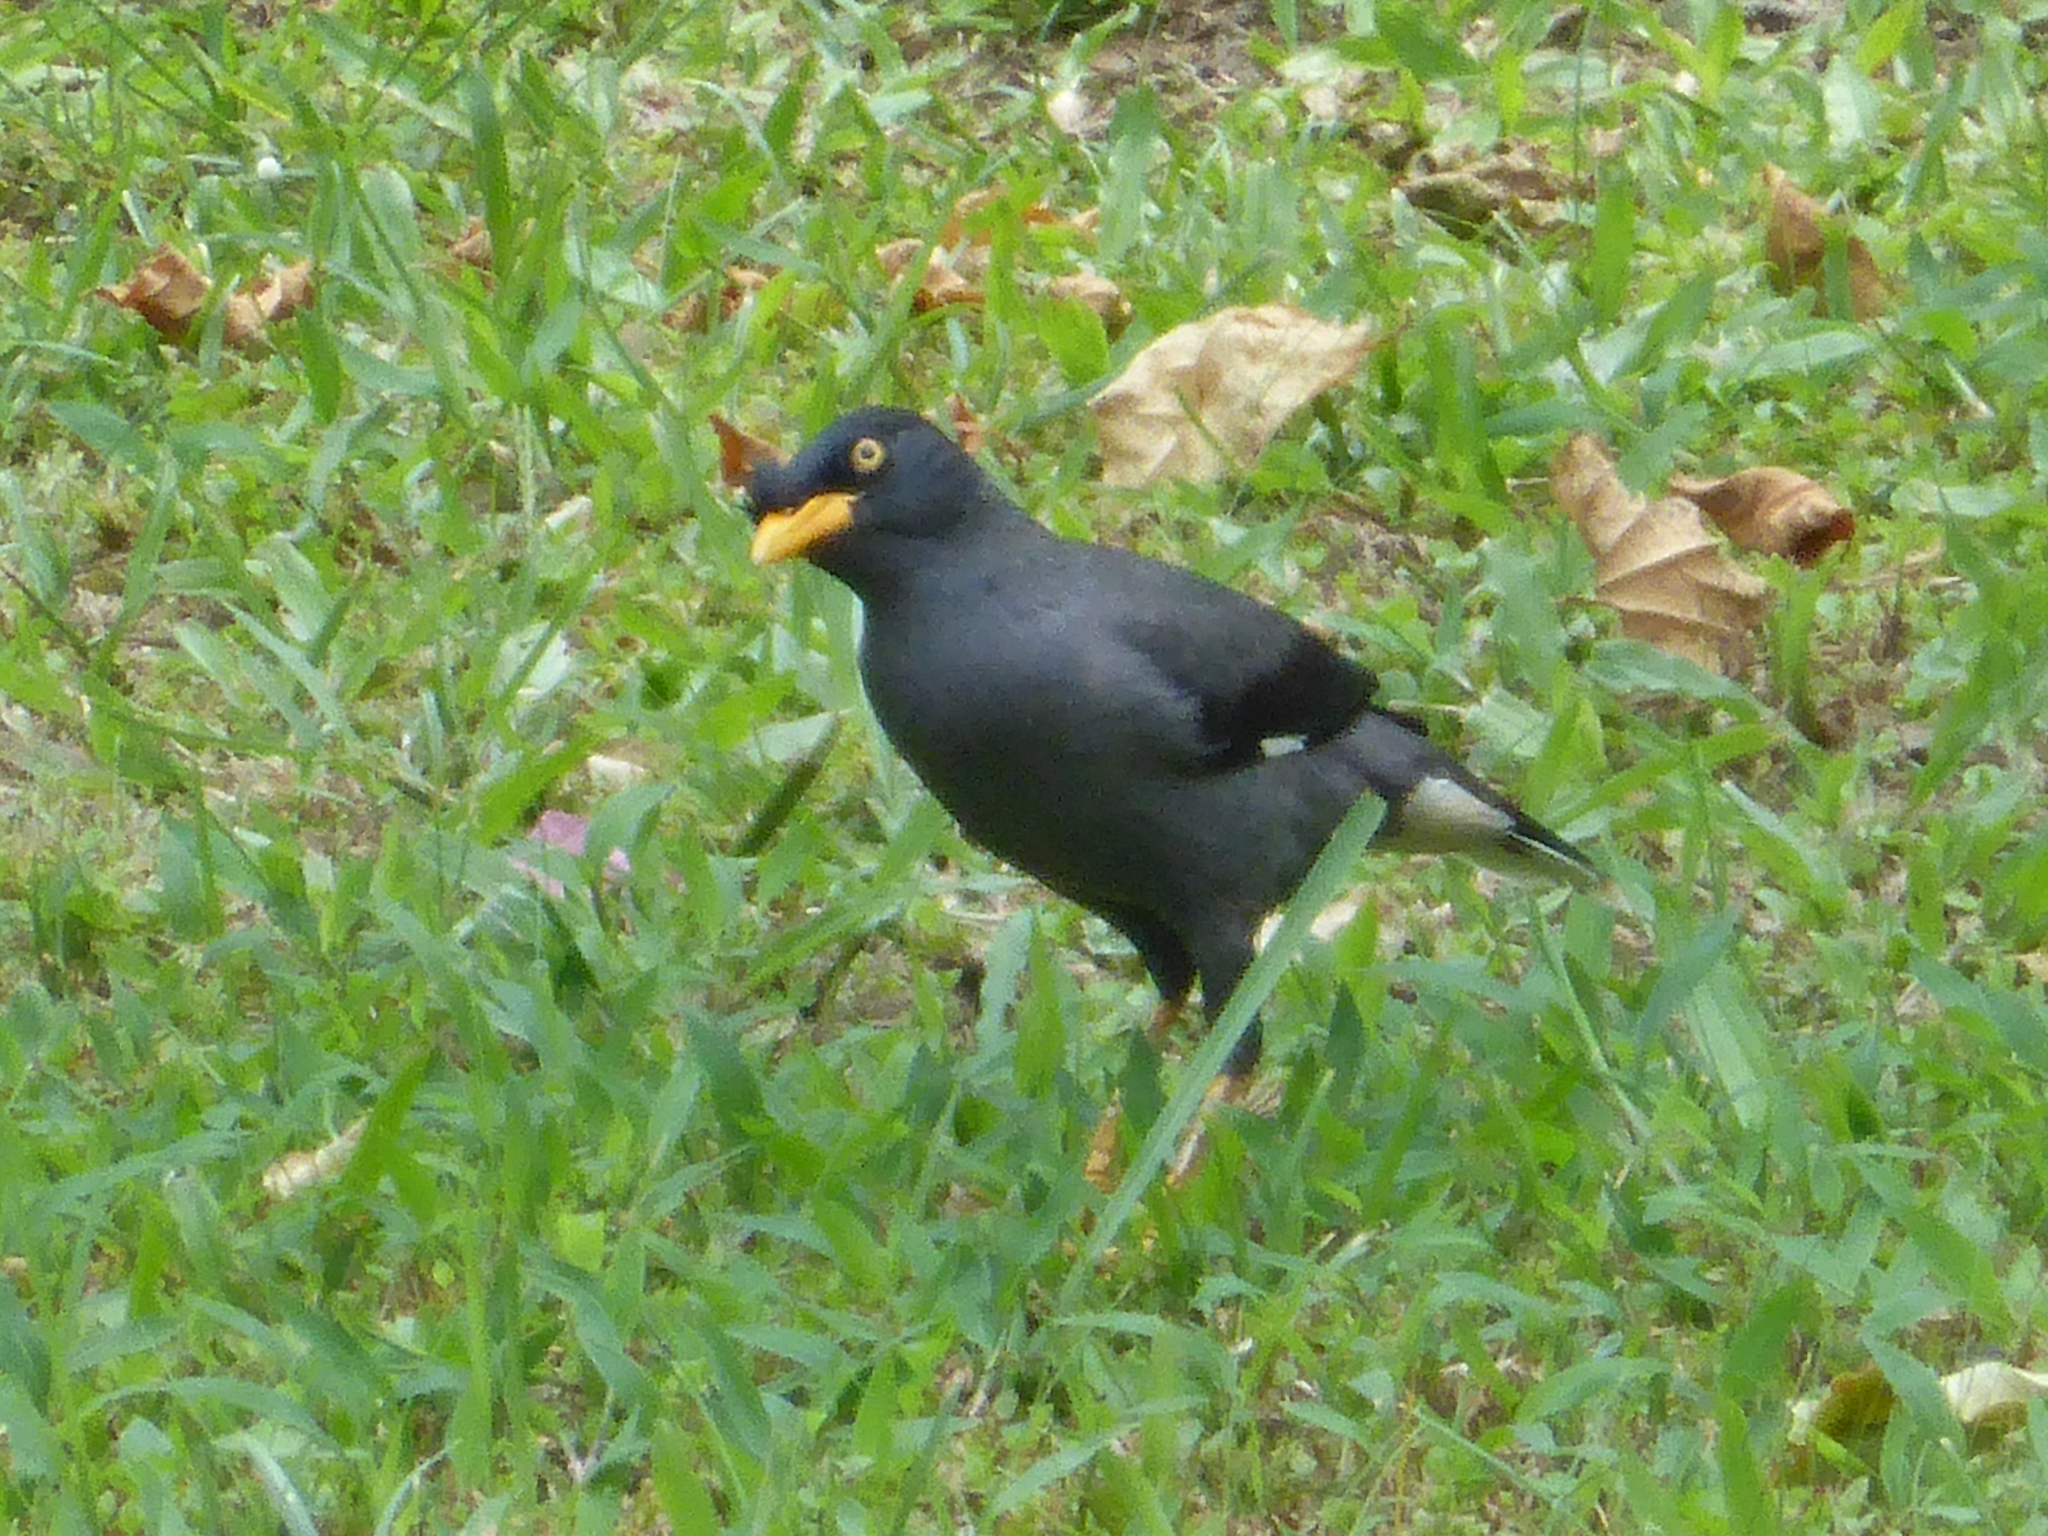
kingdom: Animalia
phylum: Chordata
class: Aves
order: Passeriformes
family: Sturnidae
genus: Acridotheres
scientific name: Acridotheres javanicus
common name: Javan myna
